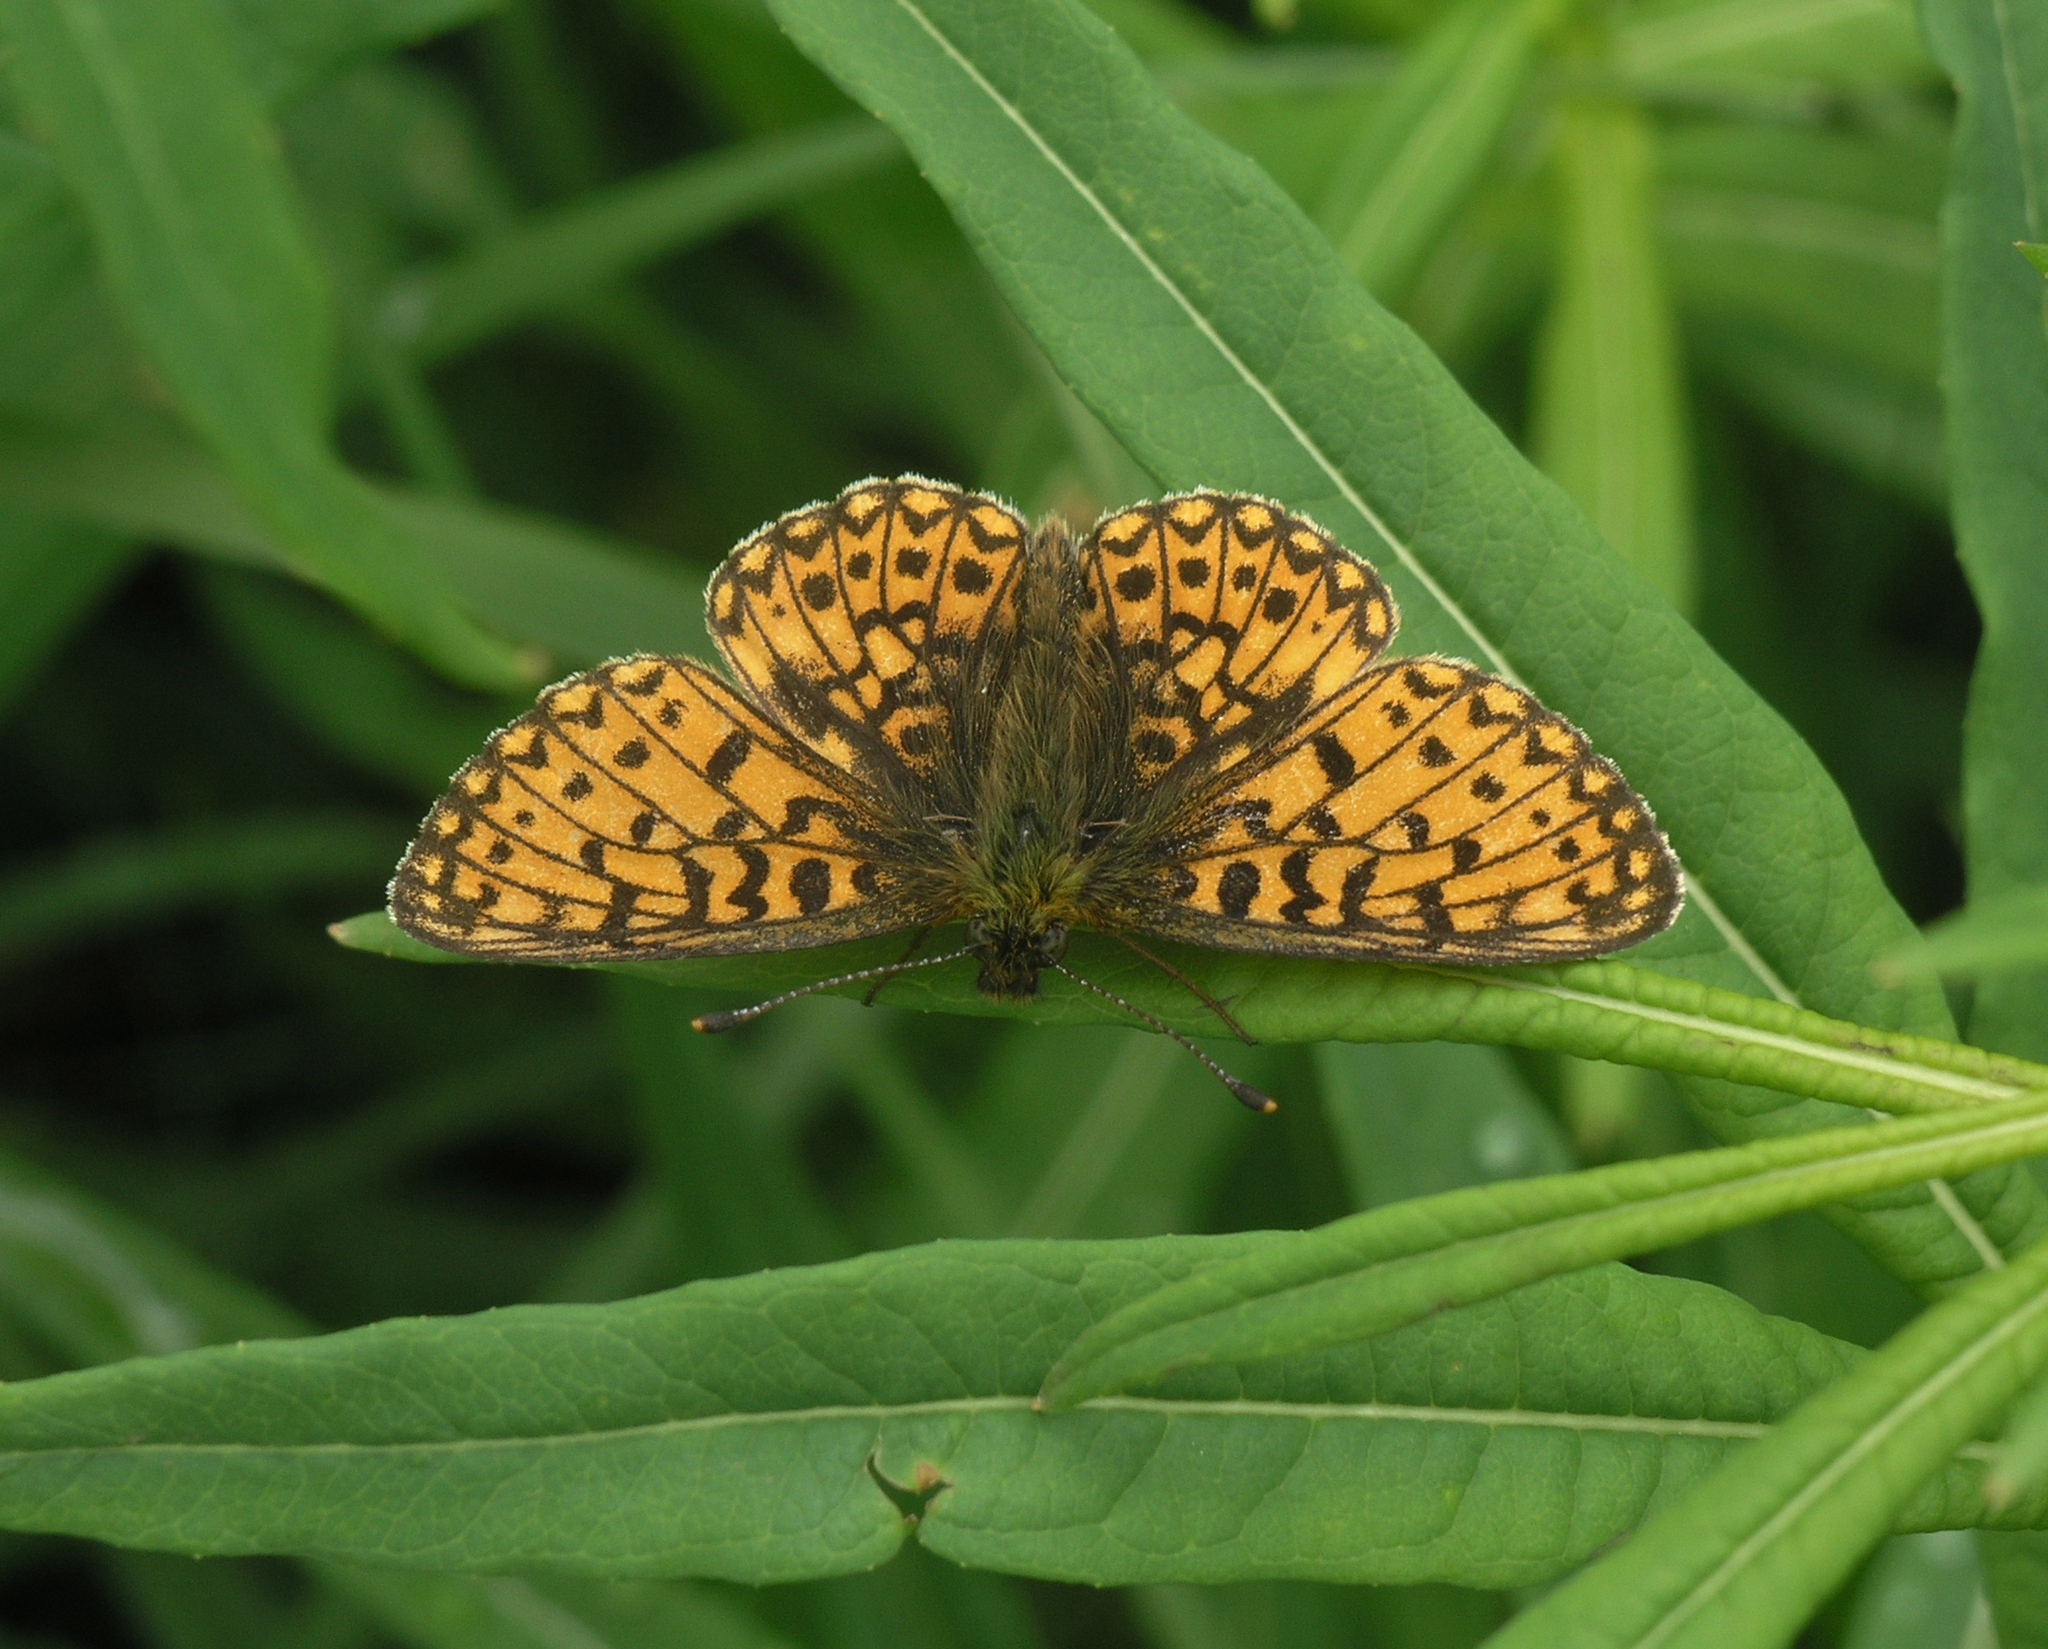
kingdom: Animalia
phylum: Arthropoda
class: Insecta
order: Lepidoptera
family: Nymphalidae
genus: Boloria
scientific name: Boloria selene
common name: Small pearl-bordered fritillary
